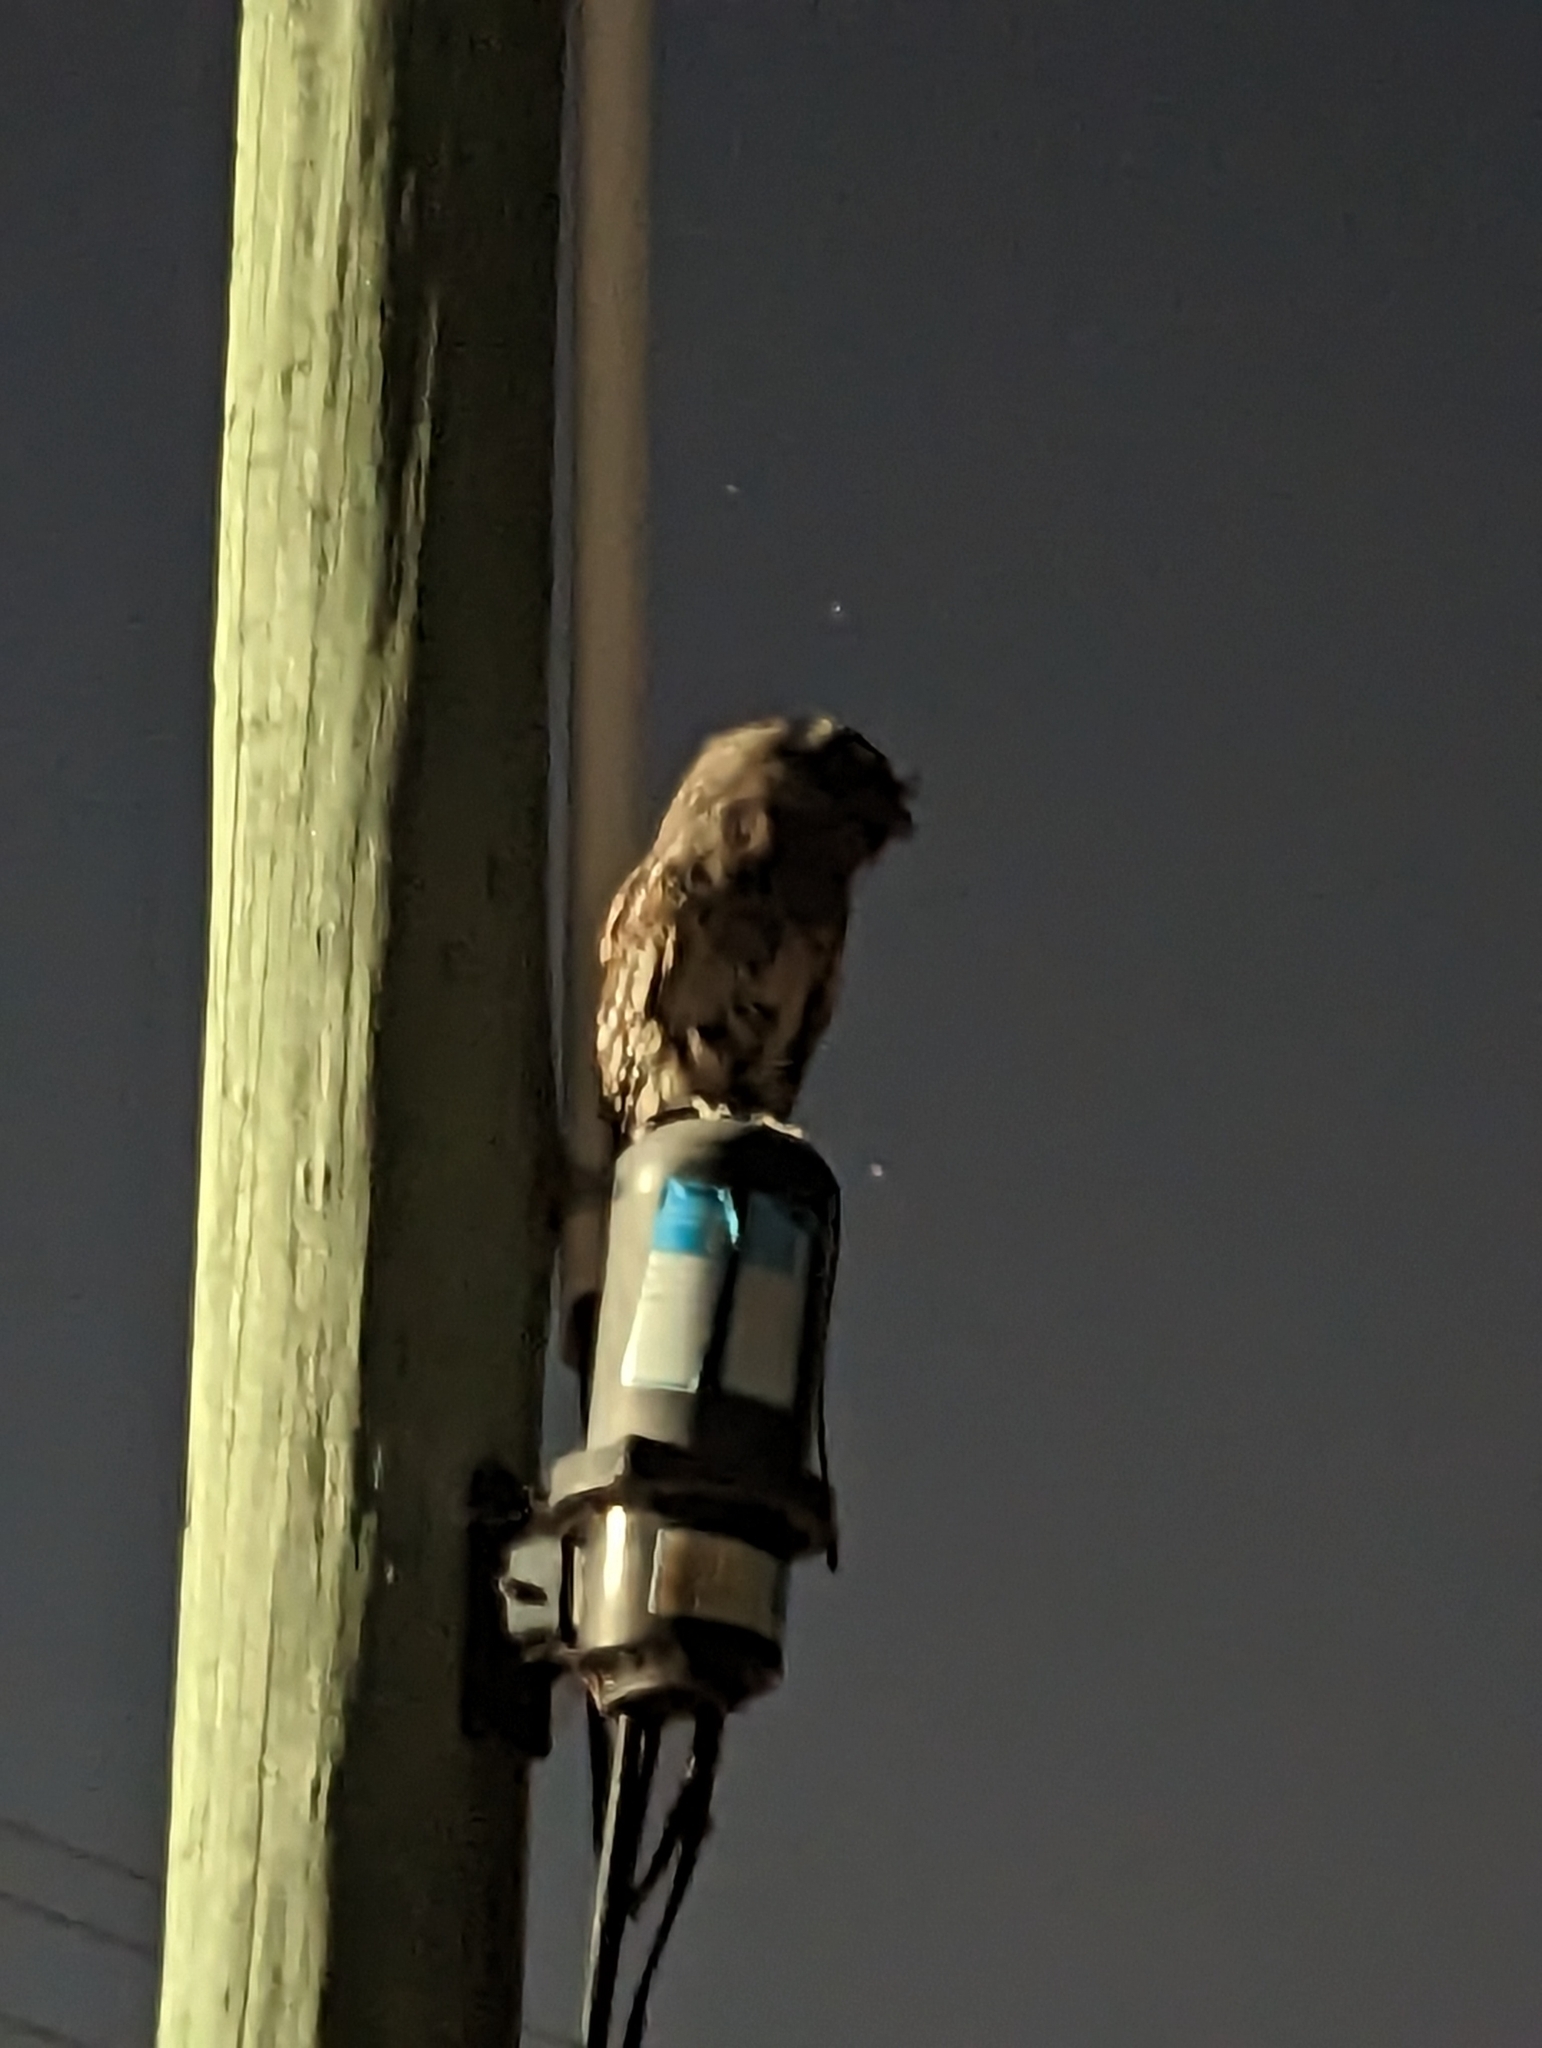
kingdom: Animalia
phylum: Chordata
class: Aves
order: Caprimulgiformes
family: Podargidae
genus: Podargus
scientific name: Podargus strigoides
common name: Tawny frogmouth
